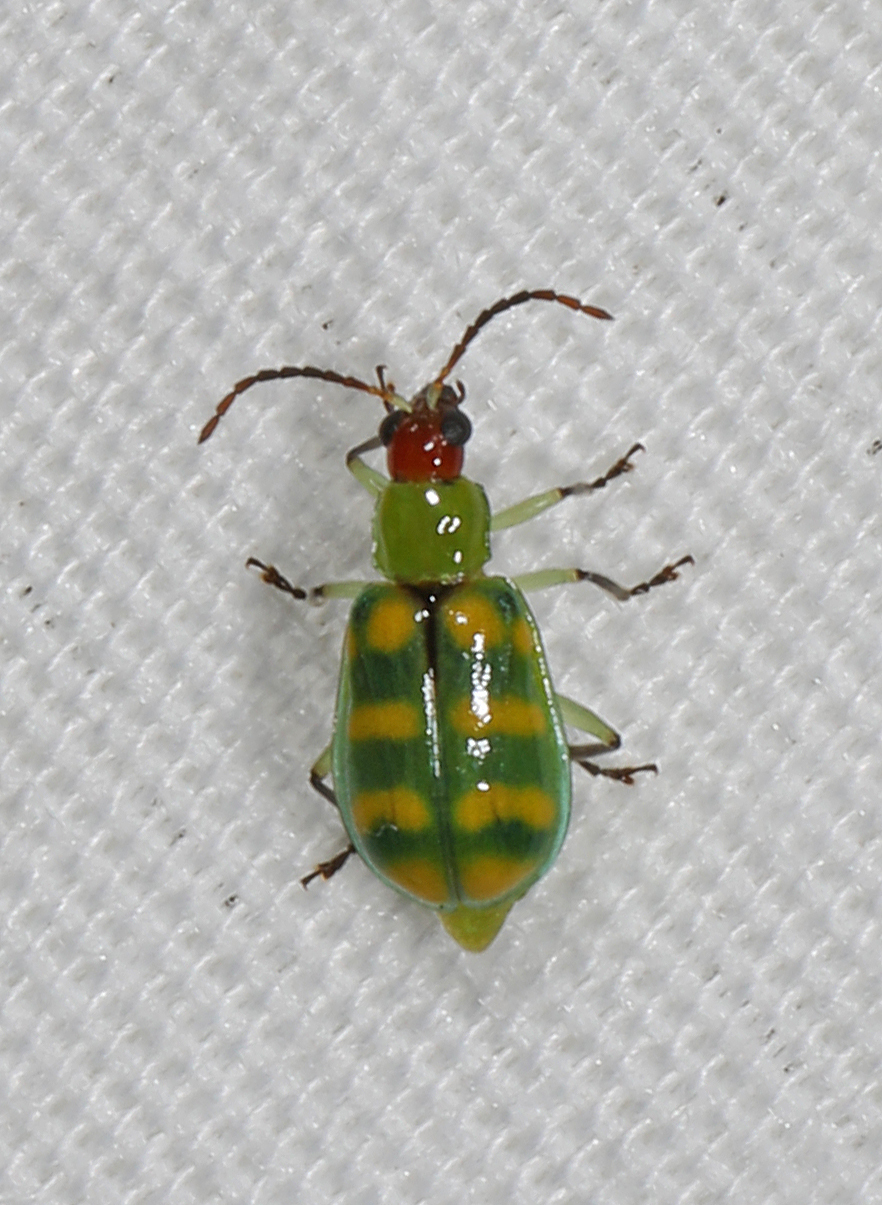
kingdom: Animalia
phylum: Arthropoda
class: Insecta
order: Coleoptera
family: Chrysomelidae
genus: Diabrotica
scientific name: Diabrotica balteata
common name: Leaf beetle
